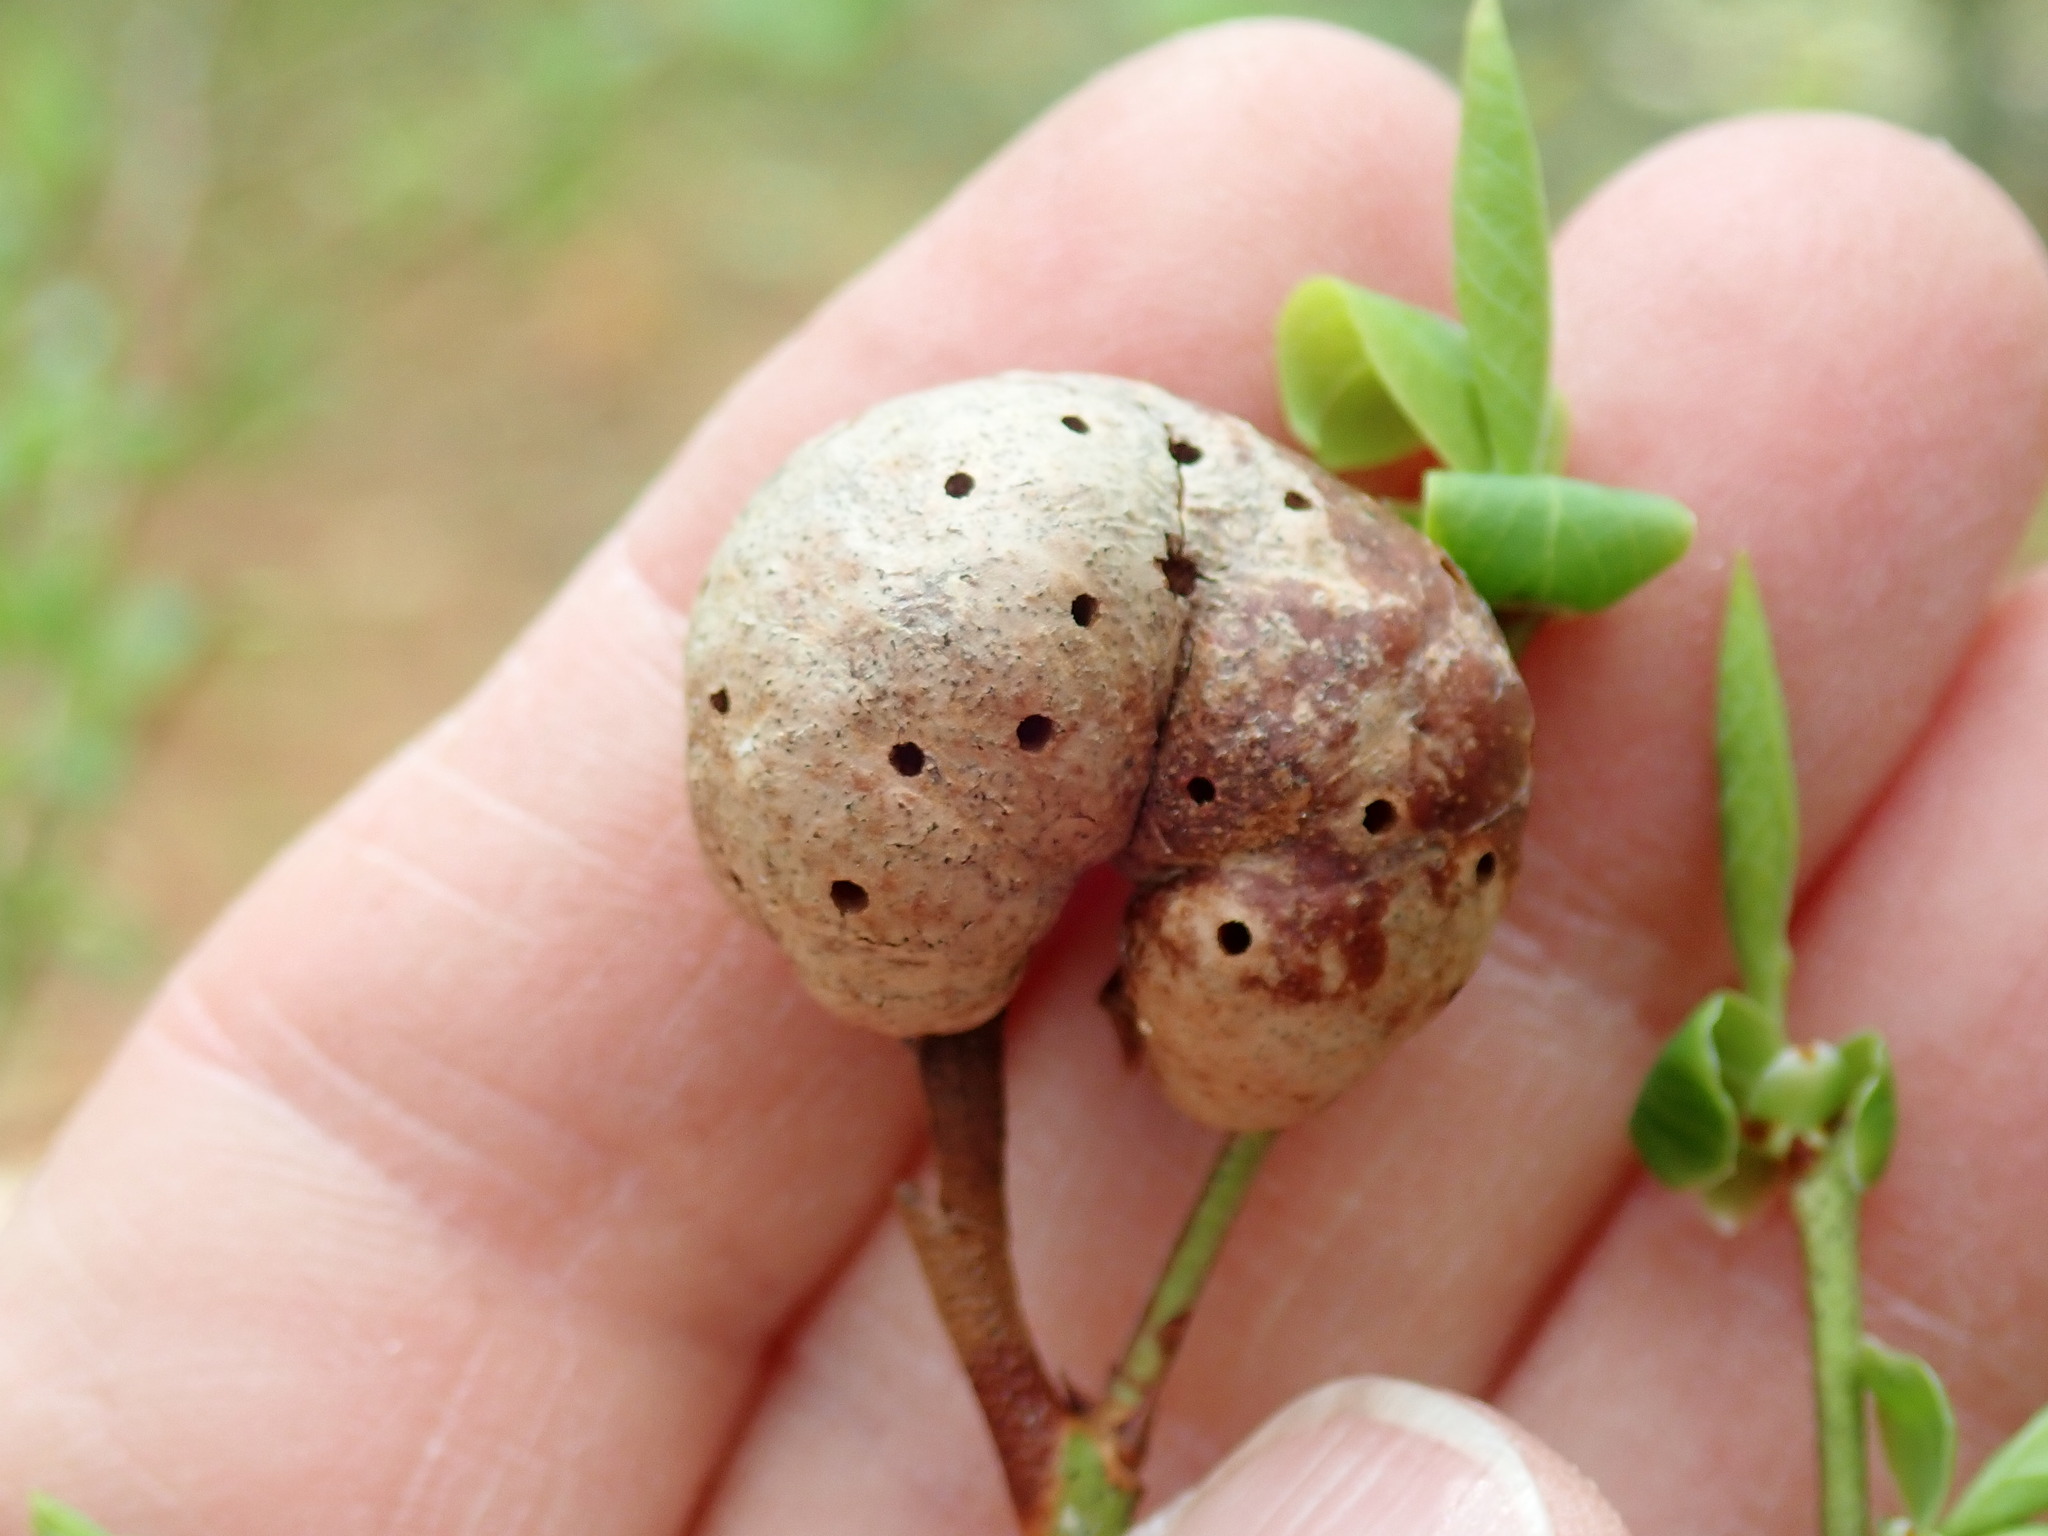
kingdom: Animalia
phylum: Arthropoda
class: Insecta
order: Hymenoptera
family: Pteromalidae
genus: Hemadas
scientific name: Hemadas nubilipennis
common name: Blueberry stem gall wasp
